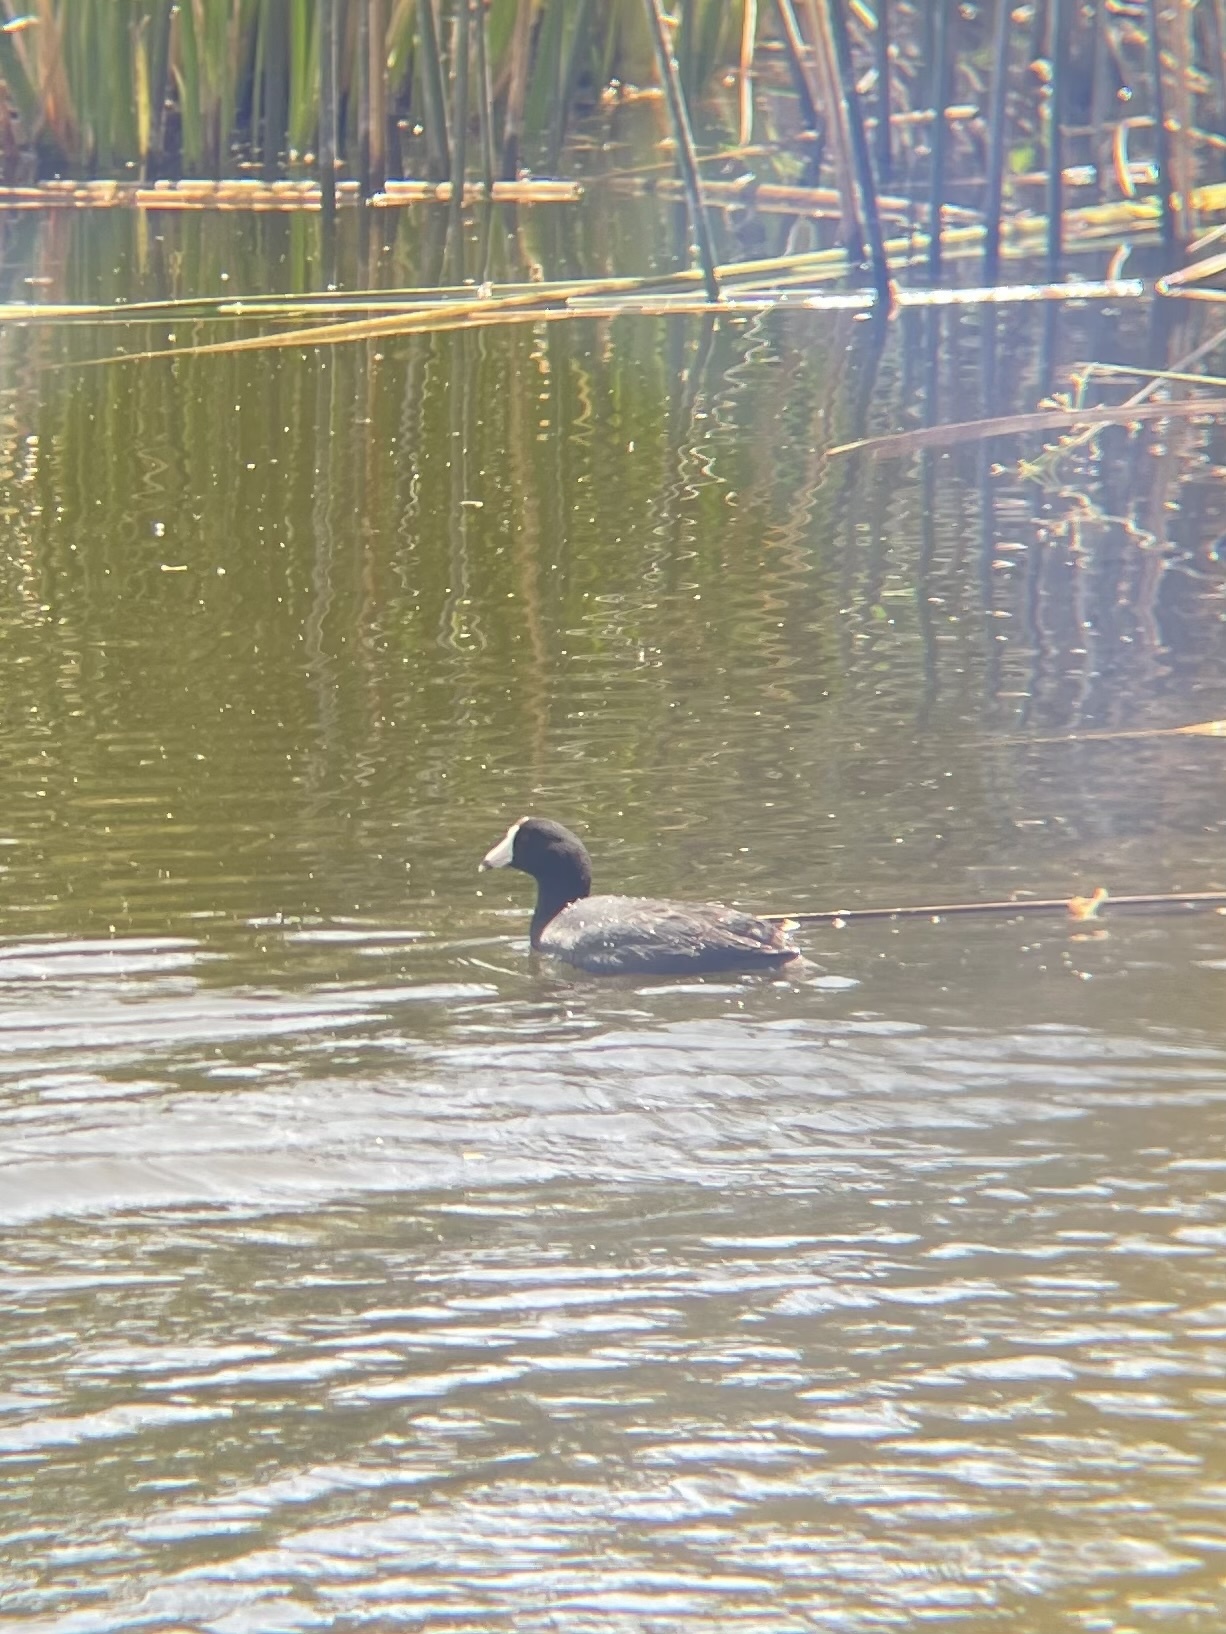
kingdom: Animalia
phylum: Chordata
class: Aves
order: Gruiformes
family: Rallidae
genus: Fulica
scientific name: Fulica americana
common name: American coot
